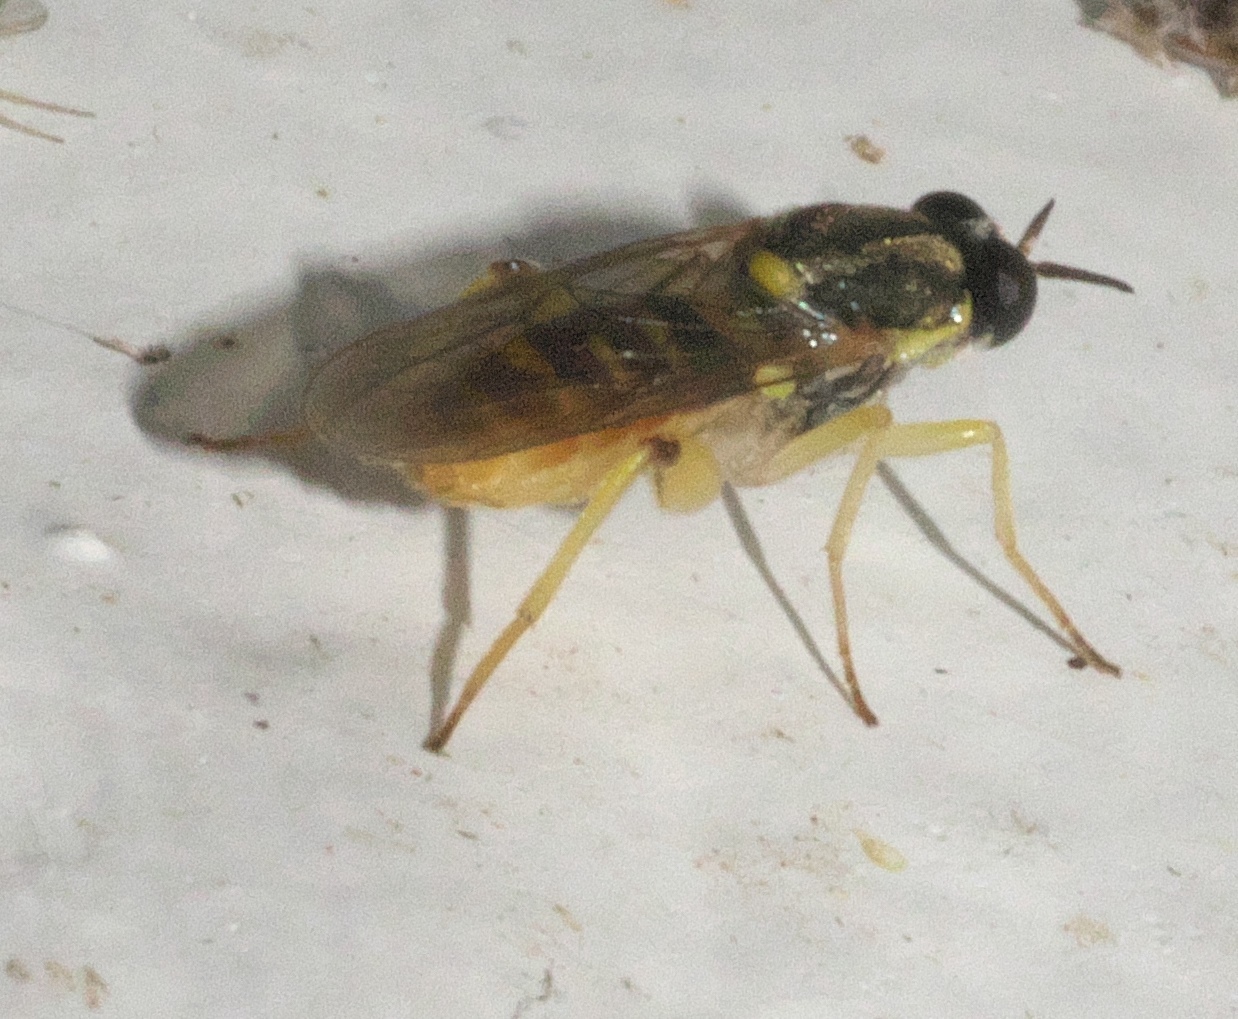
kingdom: Animalia
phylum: Arthropoda
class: Insecta
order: Diptera
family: Xylomyidae
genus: Solva
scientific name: Solva pallipes
